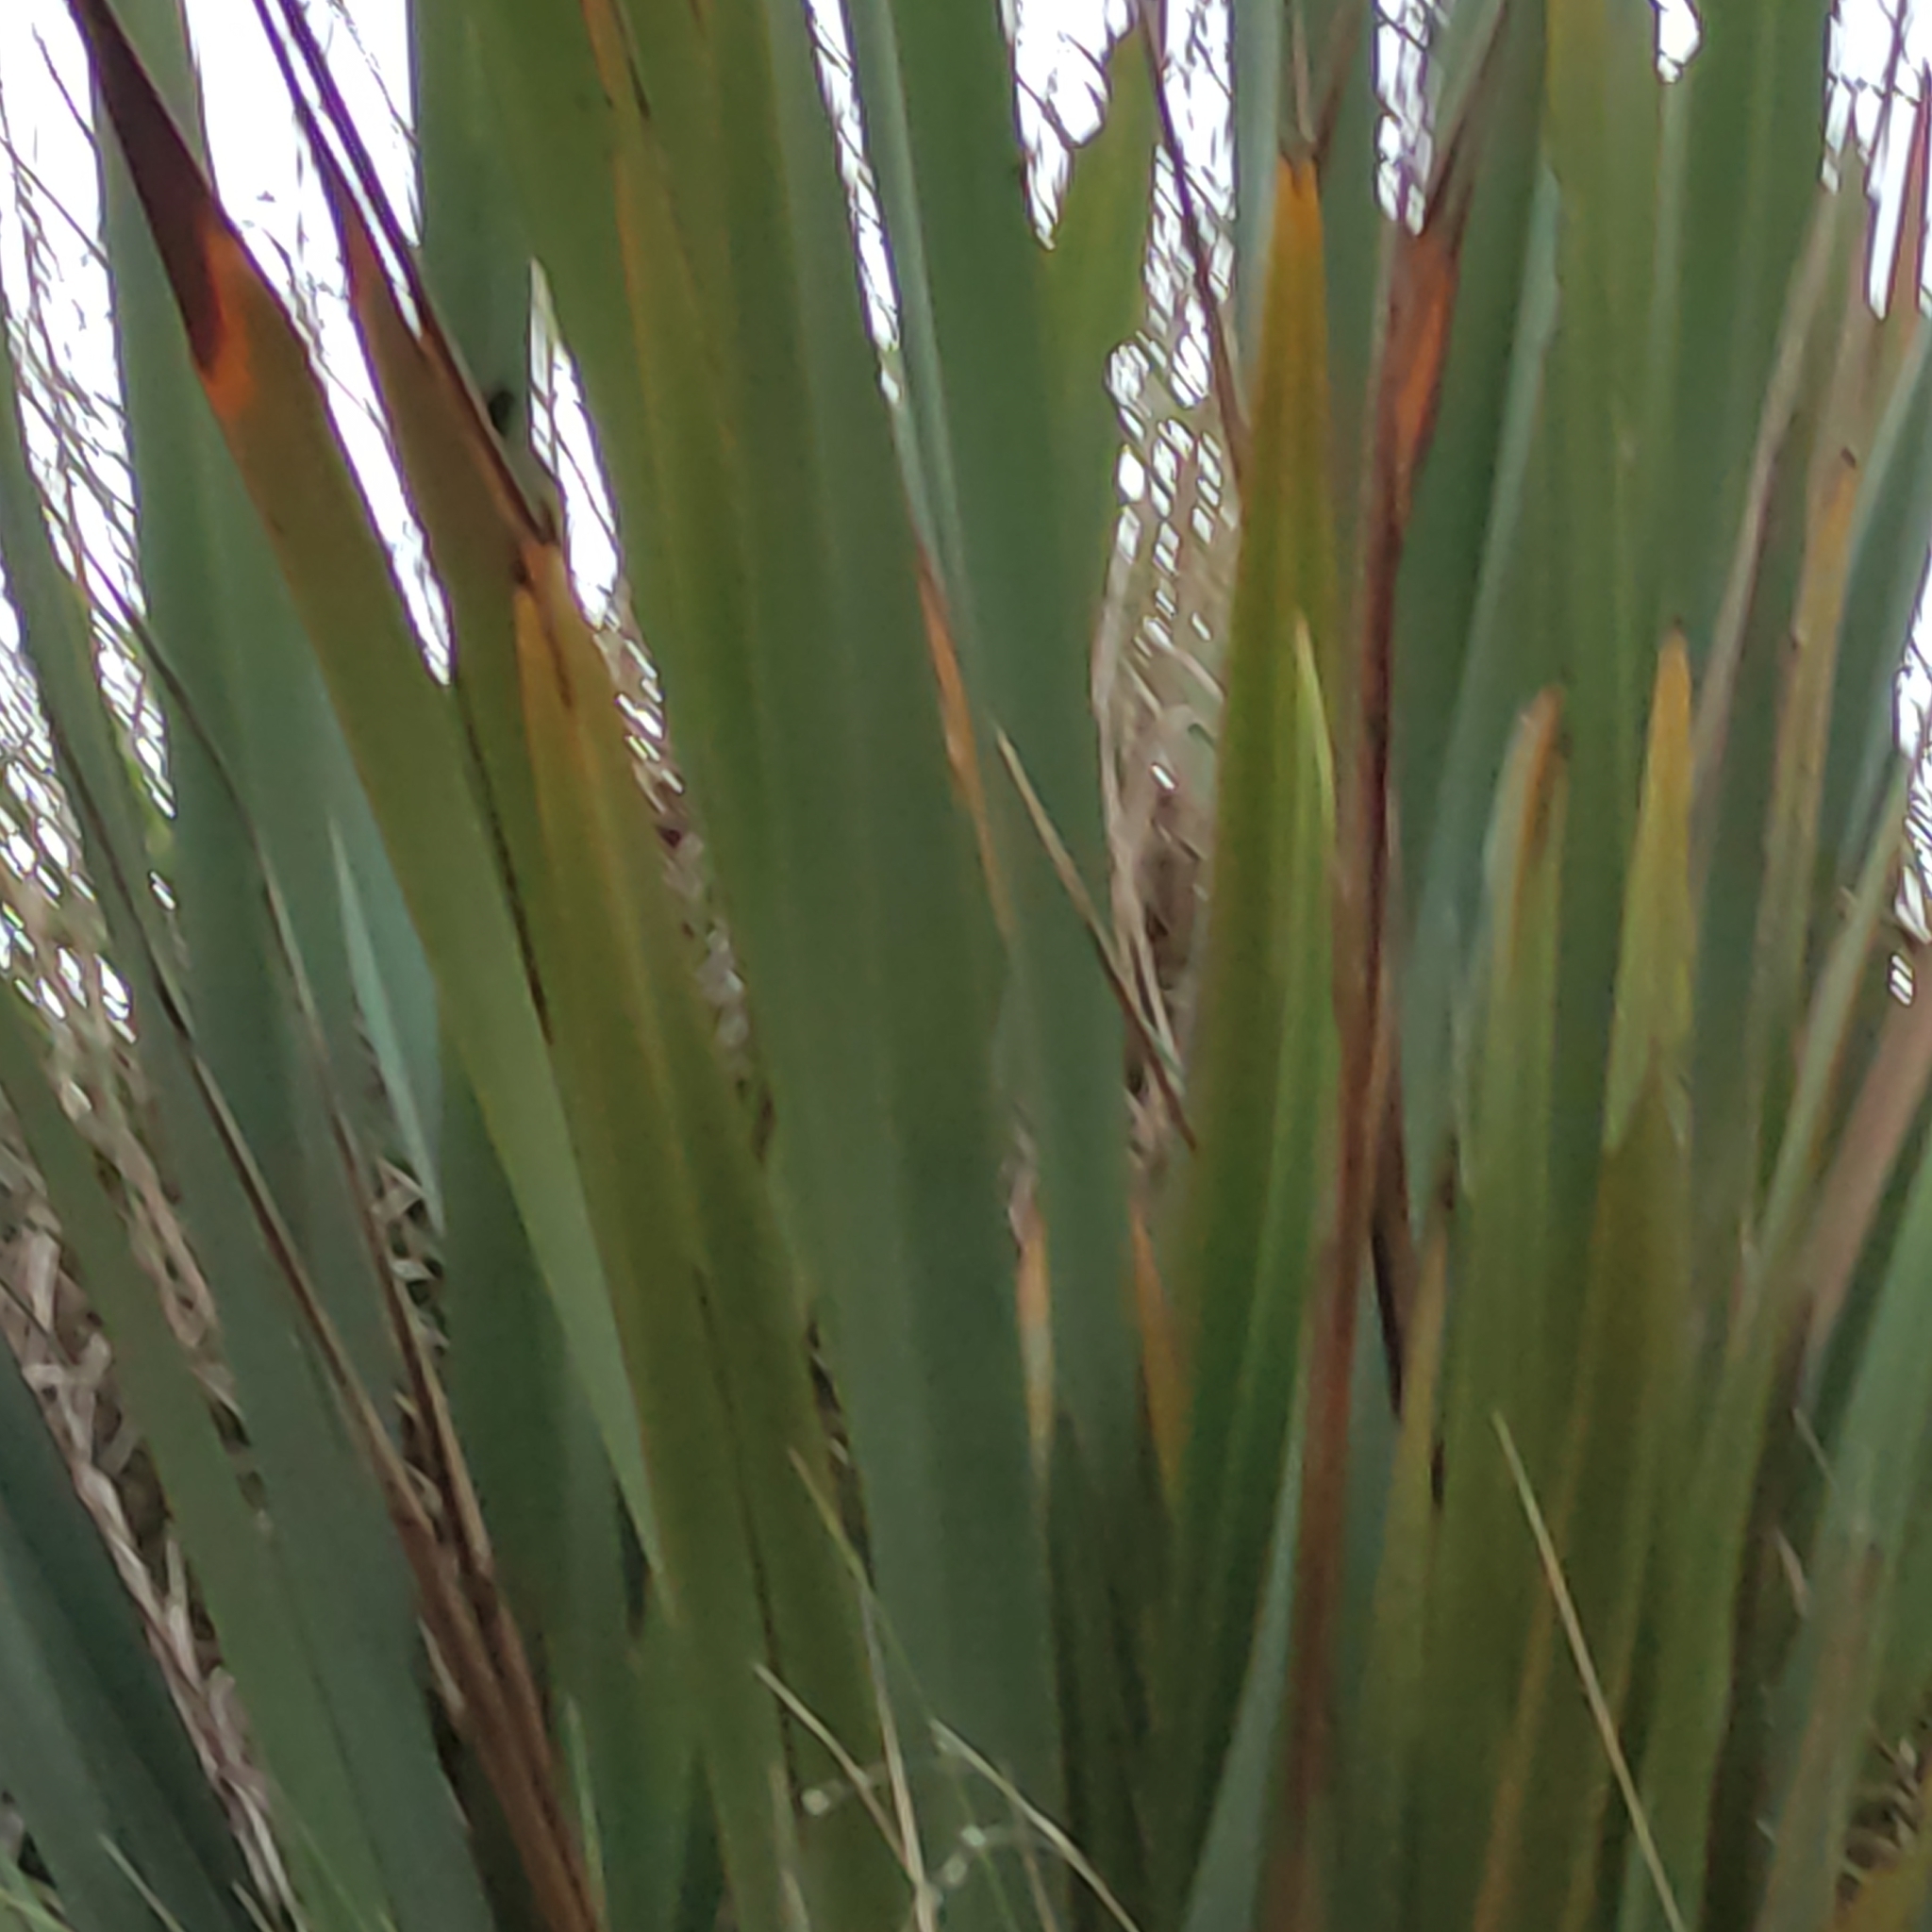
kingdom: Plantae
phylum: Tracheophyta
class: Liliopsida
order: Asparagales
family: Asphodelaceae
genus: Phormium
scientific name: Phormium tenax
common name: New zealand flax
